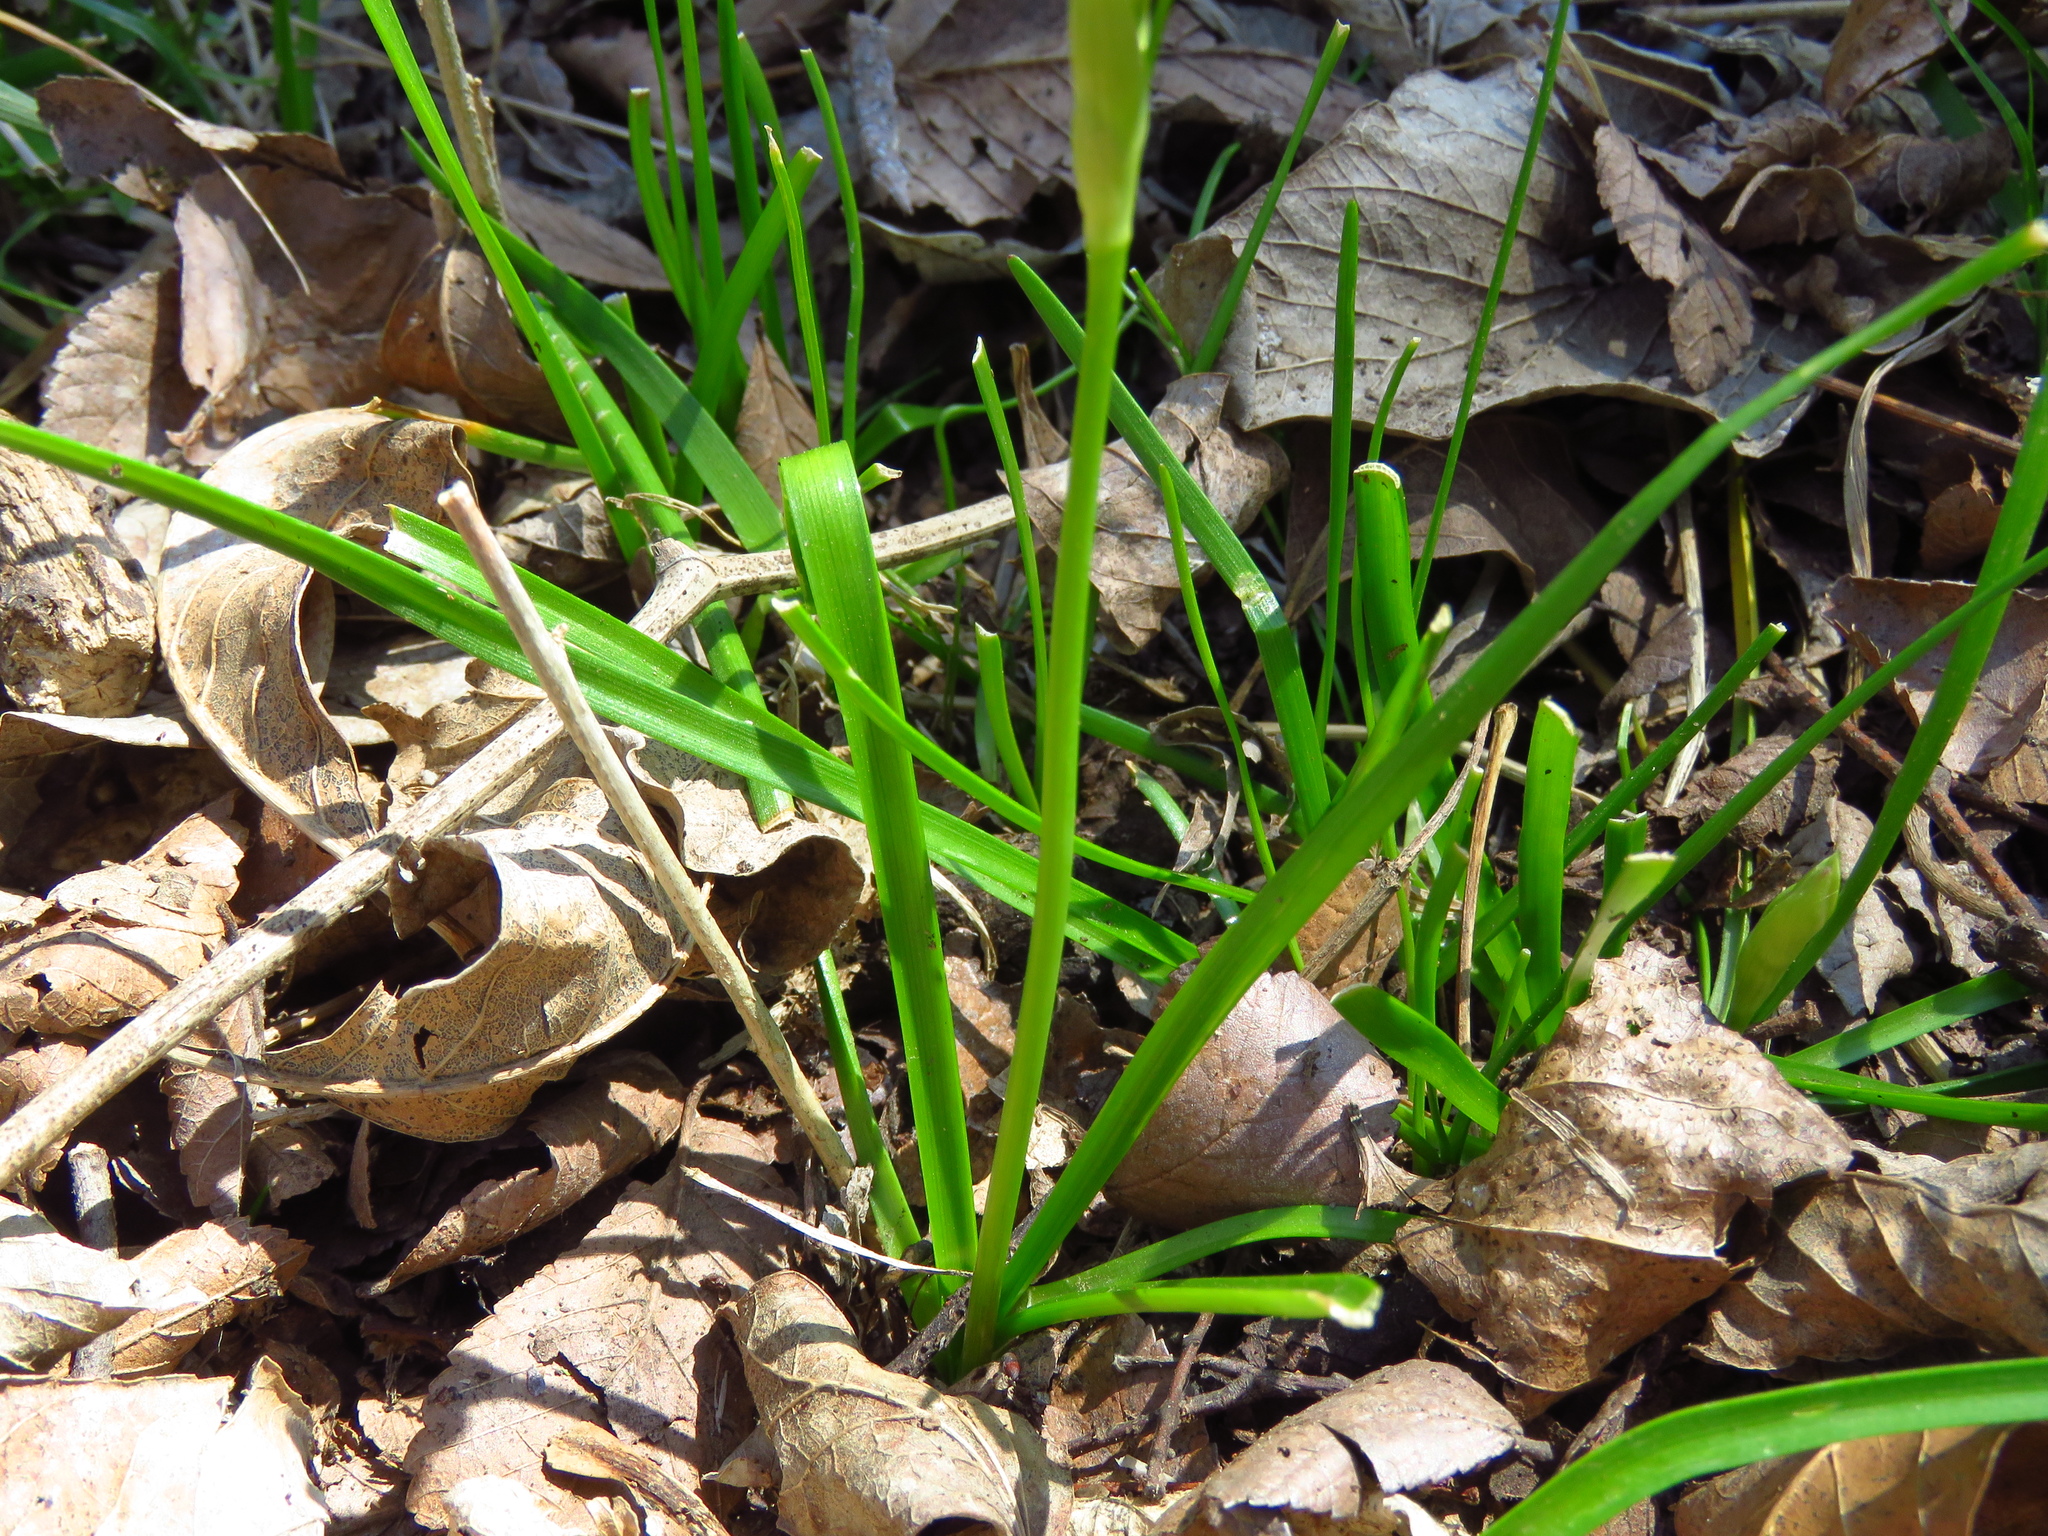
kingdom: Plantae
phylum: Tracheophyta
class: Liliopsida
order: Asparagales
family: Amaryllidaceae
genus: Nothoscordum
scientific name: Nothoscordum bivalve
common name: Crow-poison
